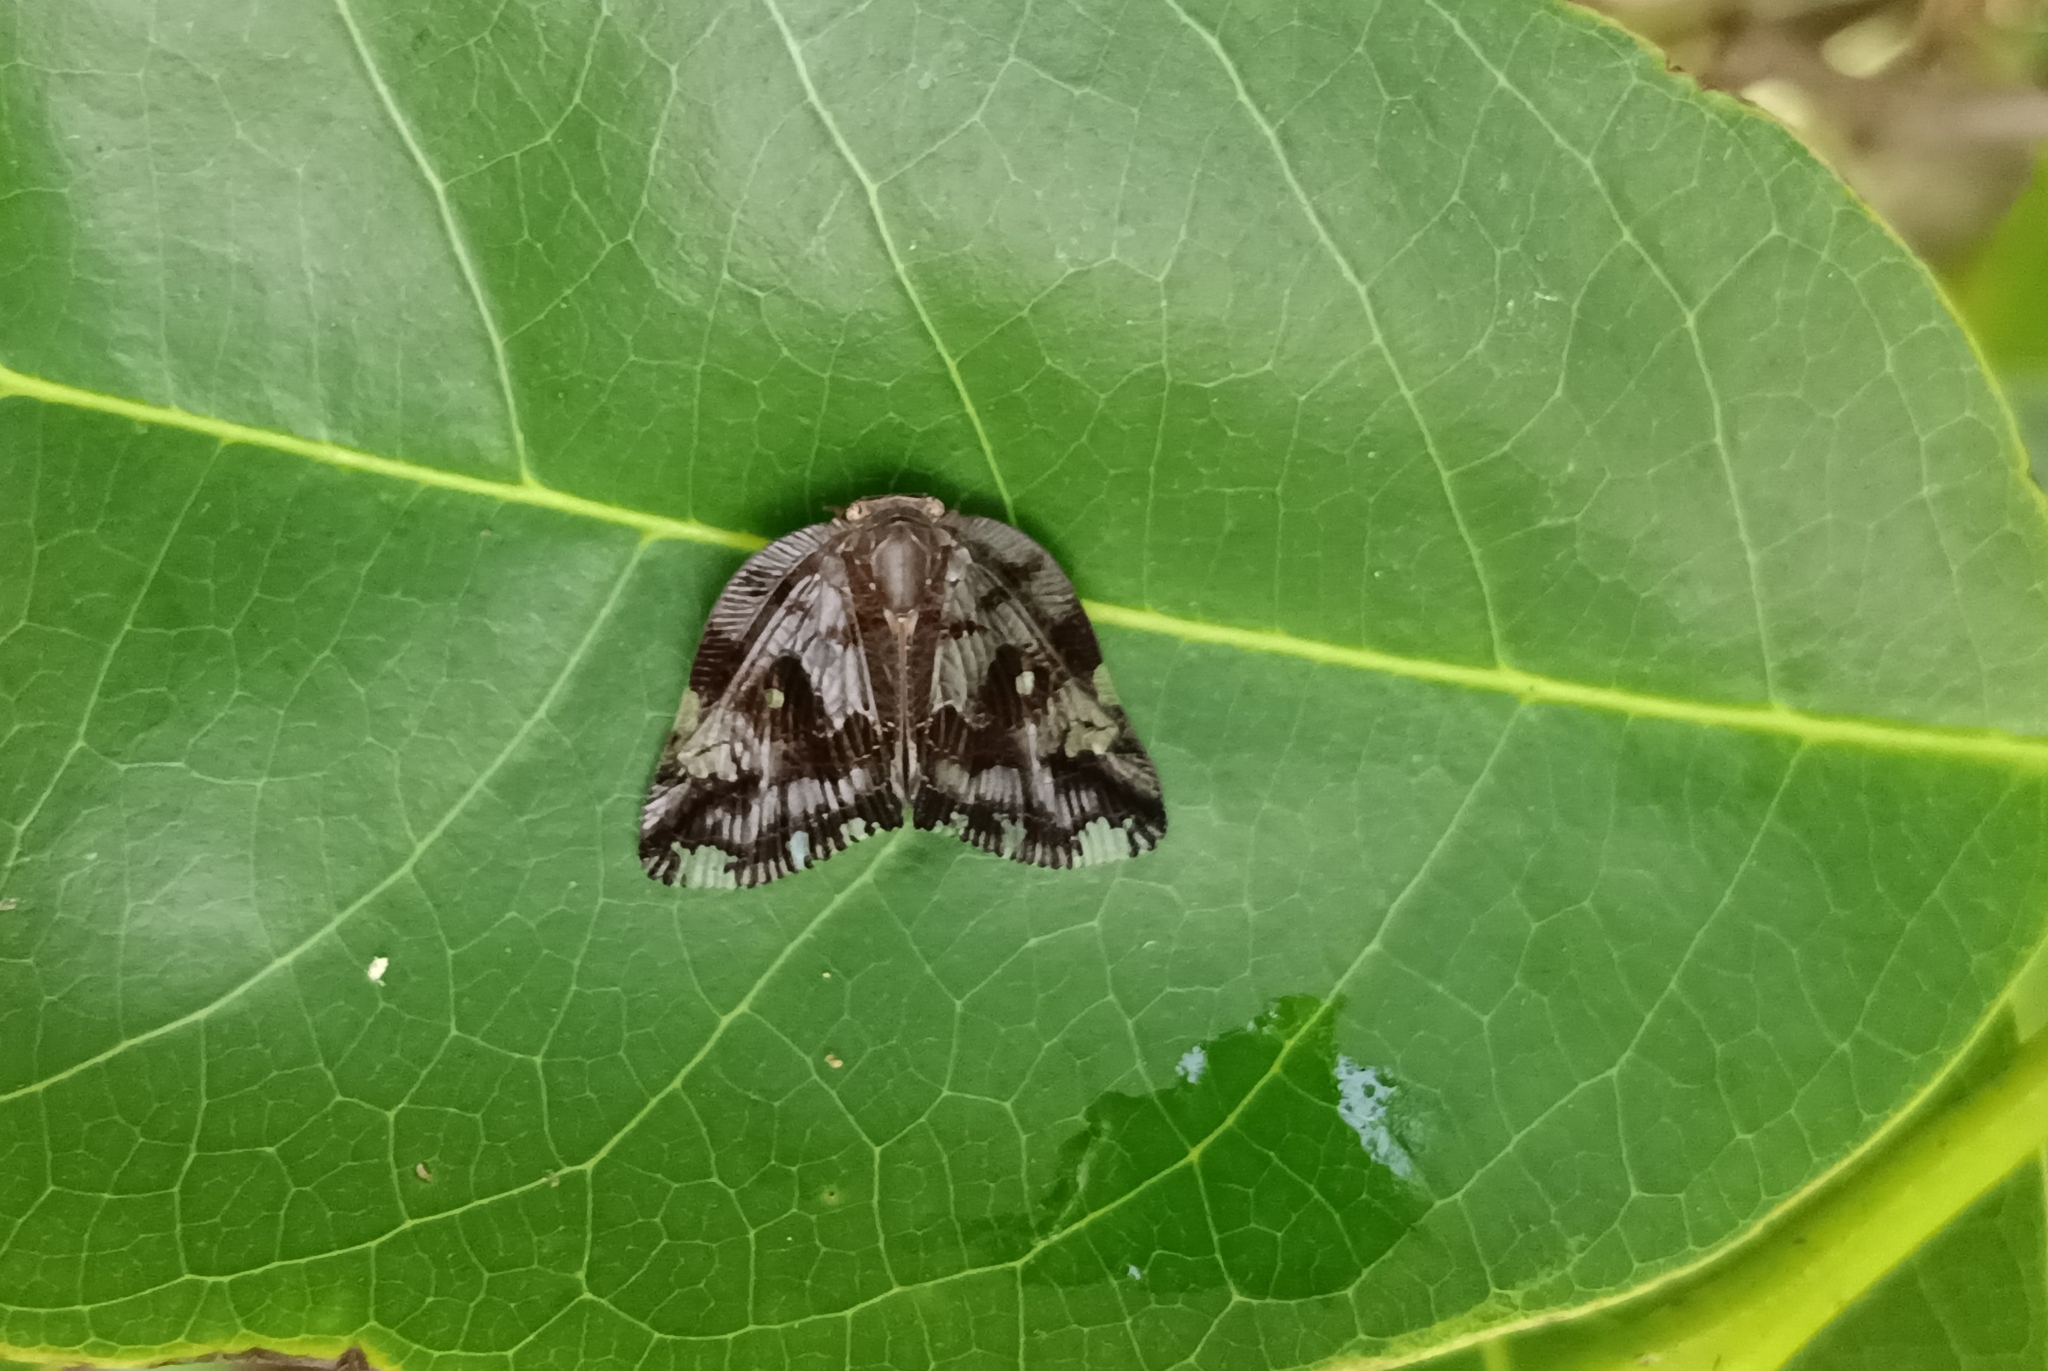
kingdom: Animalia
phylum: Arthropoda
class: Insecta
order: Hemiptera
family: Ricaniidae
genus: Ricania
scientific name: Ricania speculum
